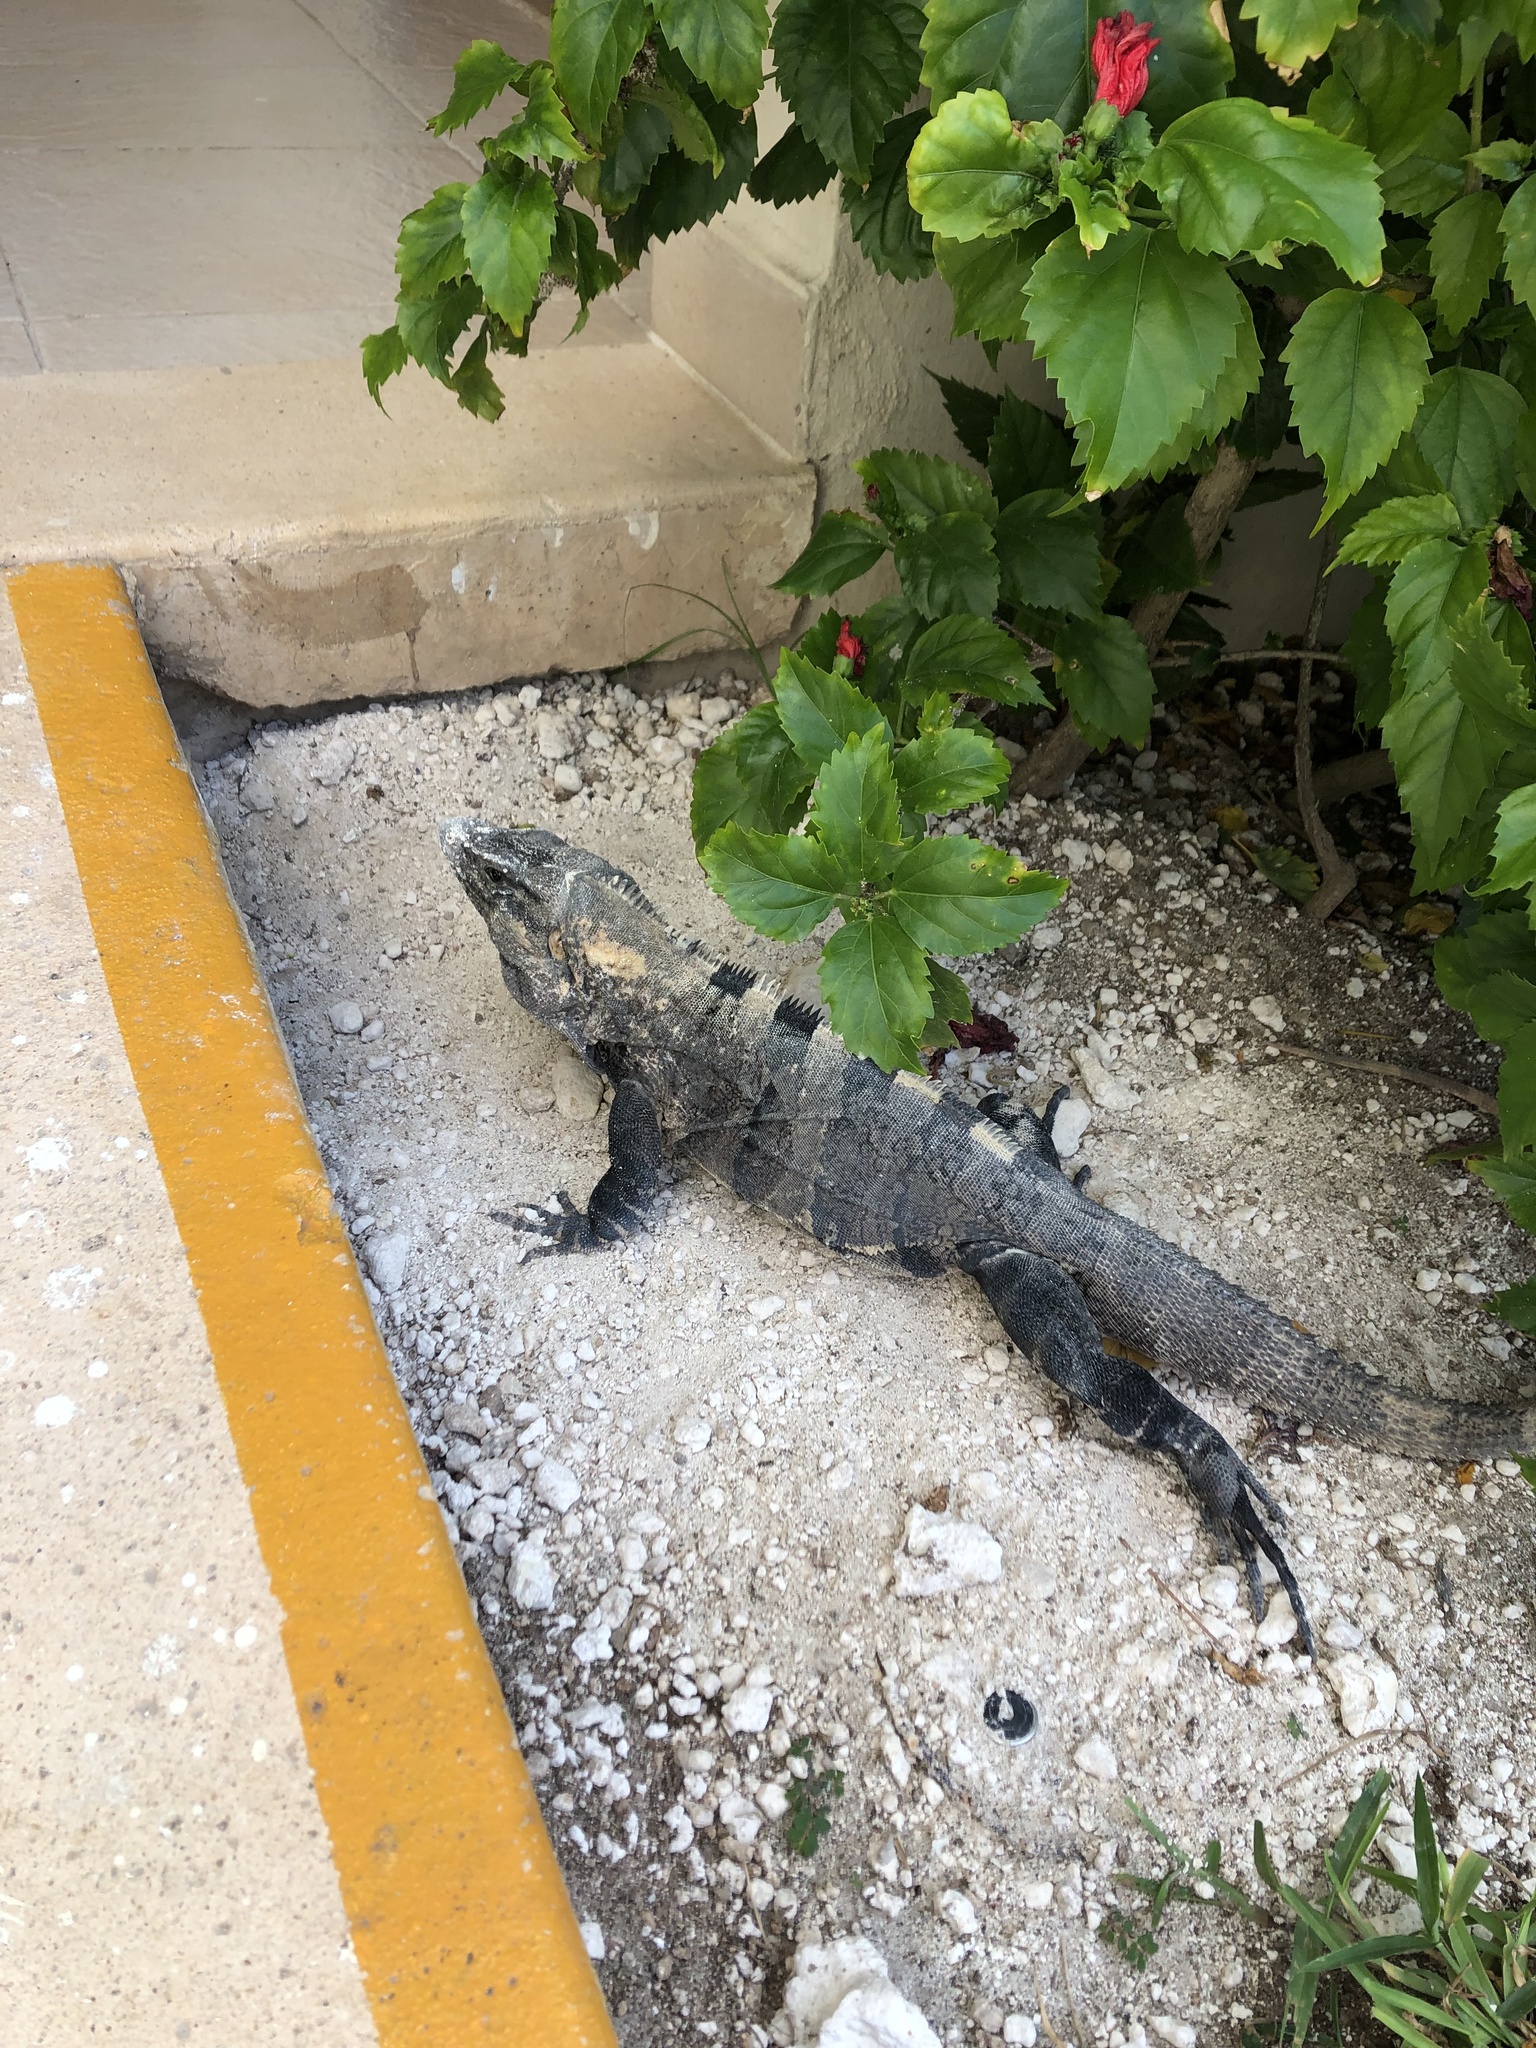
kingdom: Animalia
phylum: Chordata
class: Squamata
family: Iguanidae
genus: Ctenosaura
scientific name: Ctenosaura similis
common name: Black spiny-tailed iguana
